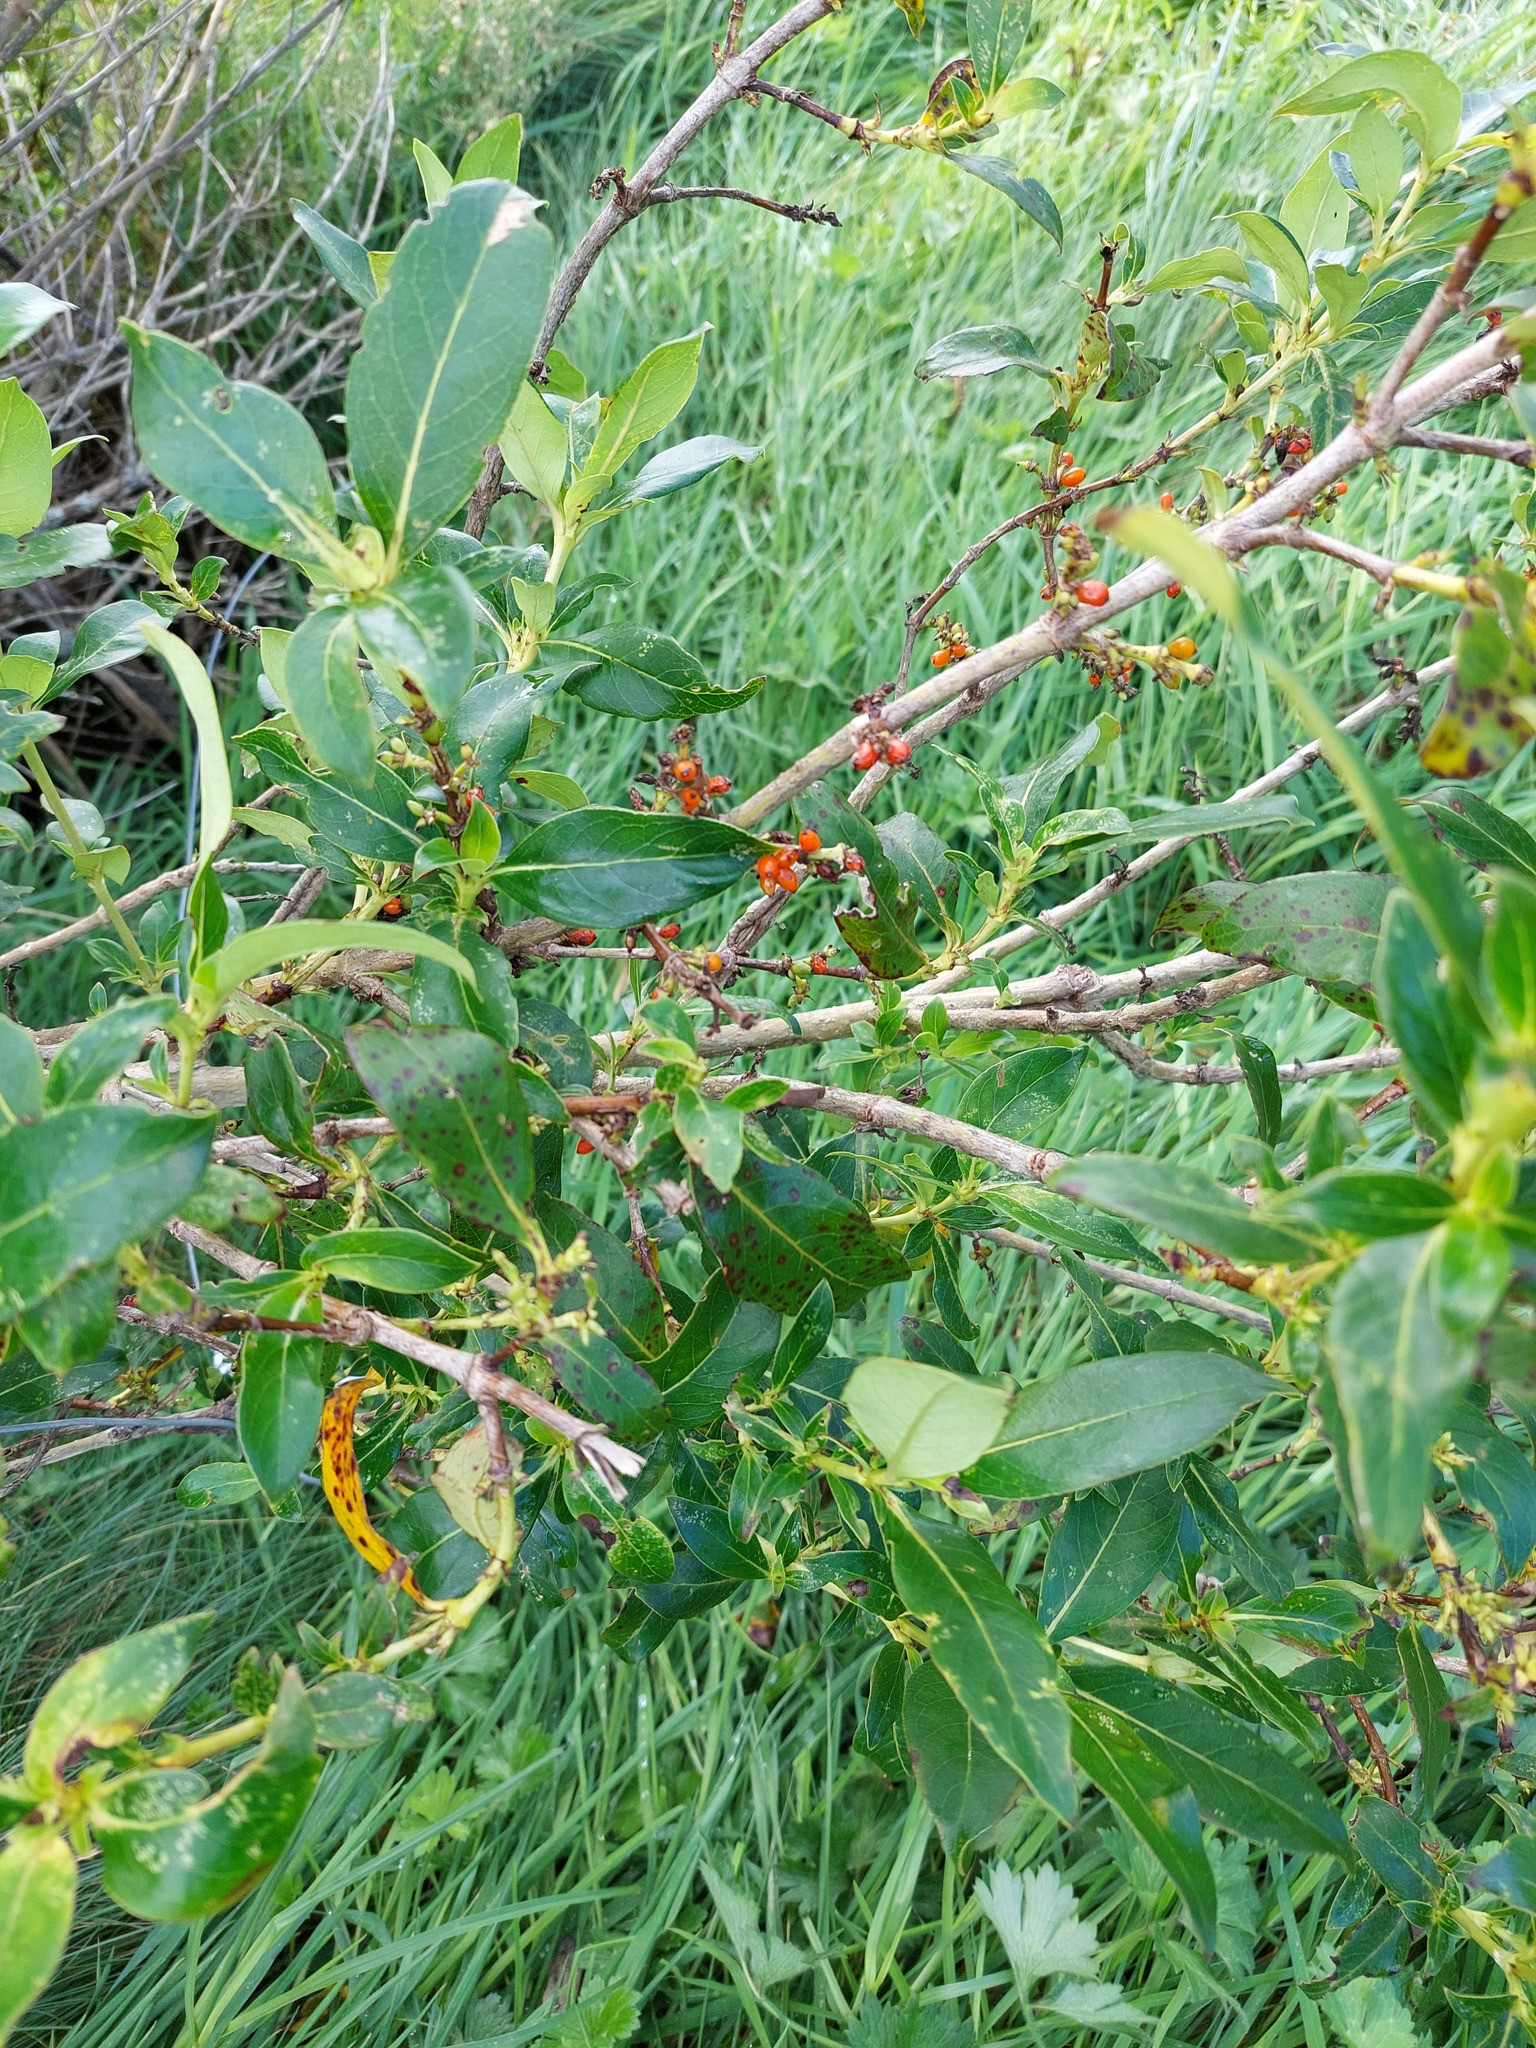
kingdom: Plantae
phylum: Tracheophyta
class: Magnoliopsida
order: Gentianales
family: Rubiaceae
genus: Coprosma
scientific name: Coprosma robusta
